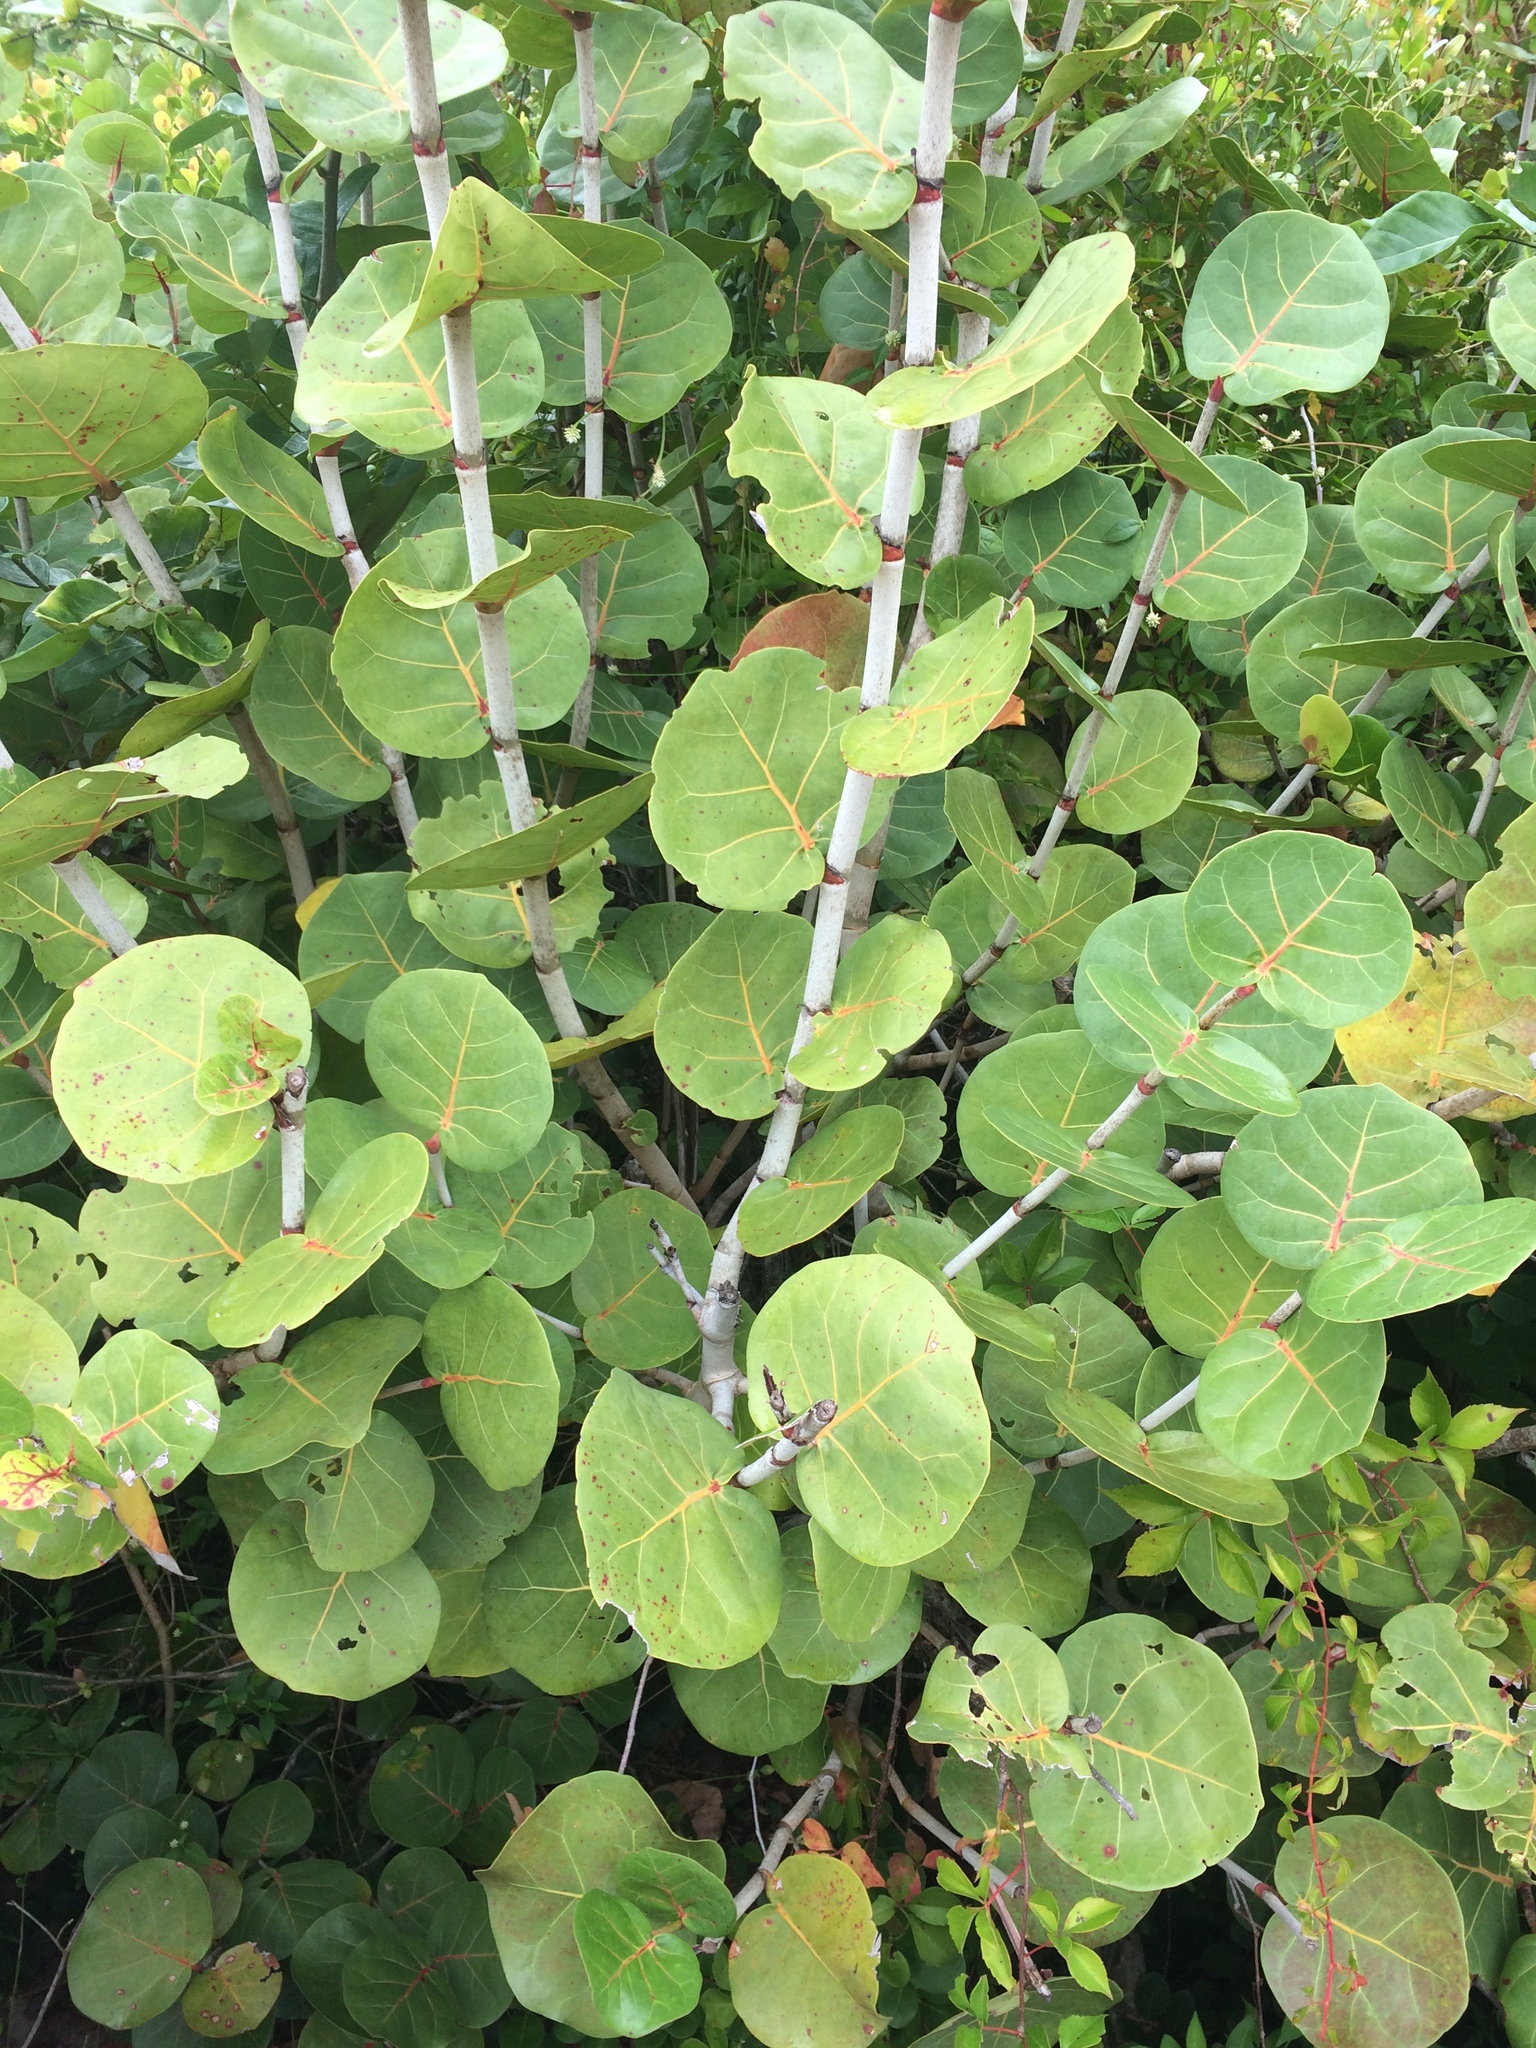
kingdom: Plantae
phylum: Tracheophyta
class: Magnoliopsida
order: Caryophyllales
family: Polygonaceae
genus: Coccoloba
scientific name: Coccoloba uvifera
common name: Seagrape
